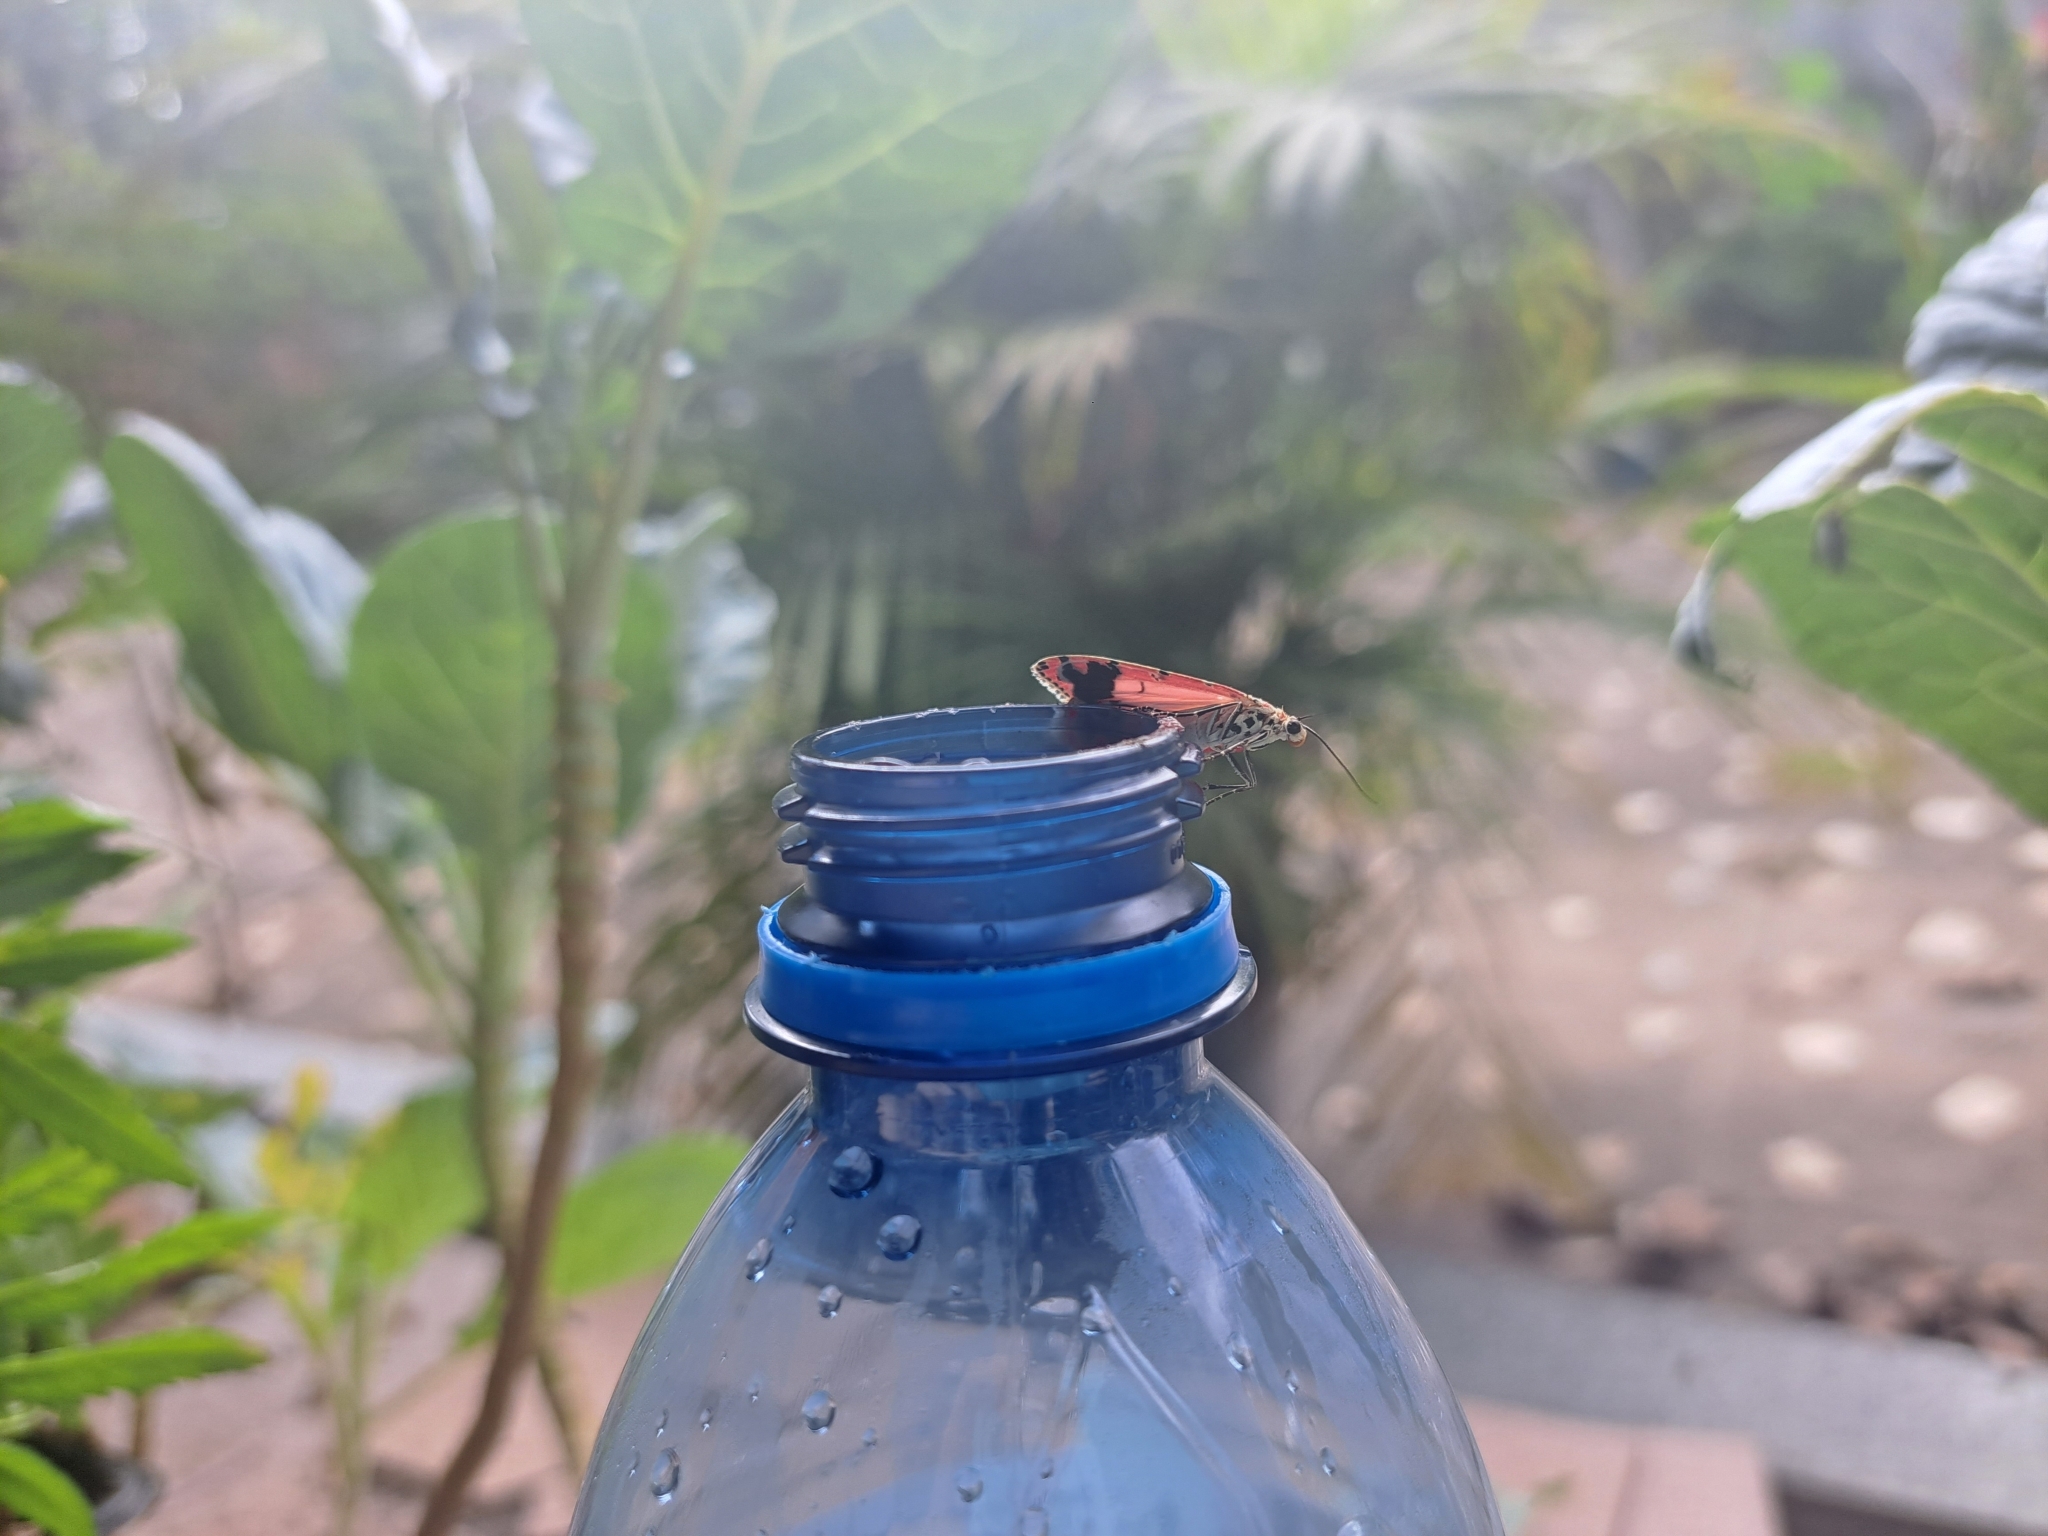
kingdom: Animalia
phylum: Arthropoda
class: Insecta
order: Lepidoptera
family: Erebidae
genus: Utetheisa
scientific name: Utetheisa ornatrix
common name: Beautiful utetheisa
